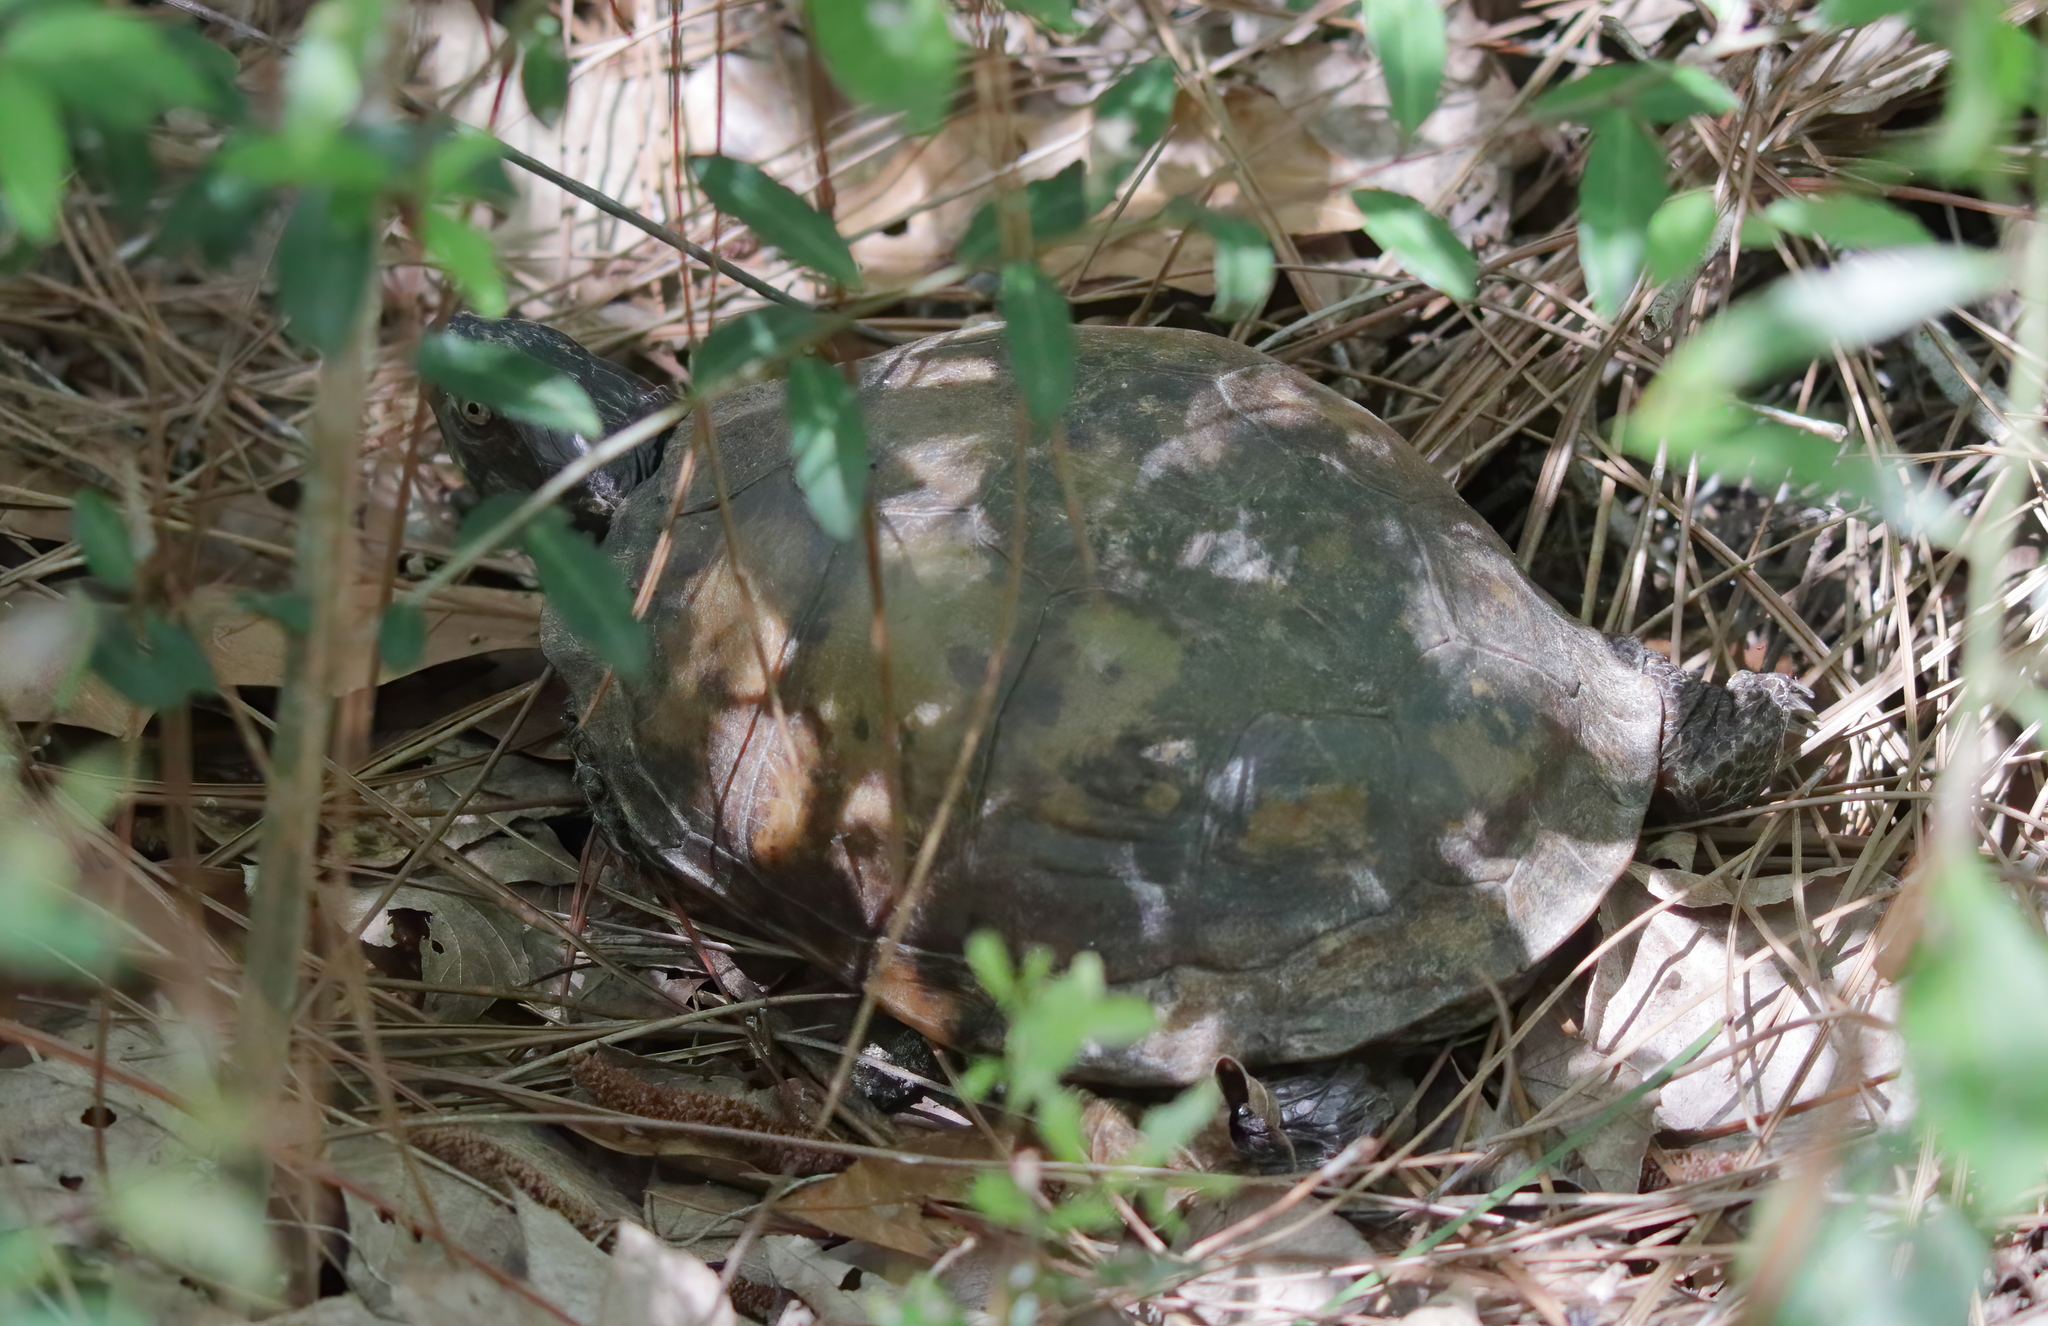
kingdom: Animalia
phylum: Chordata
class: Testudines
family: Emydidae
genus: Terrapene
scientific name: Terrapene carolina
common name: Common box turtle
